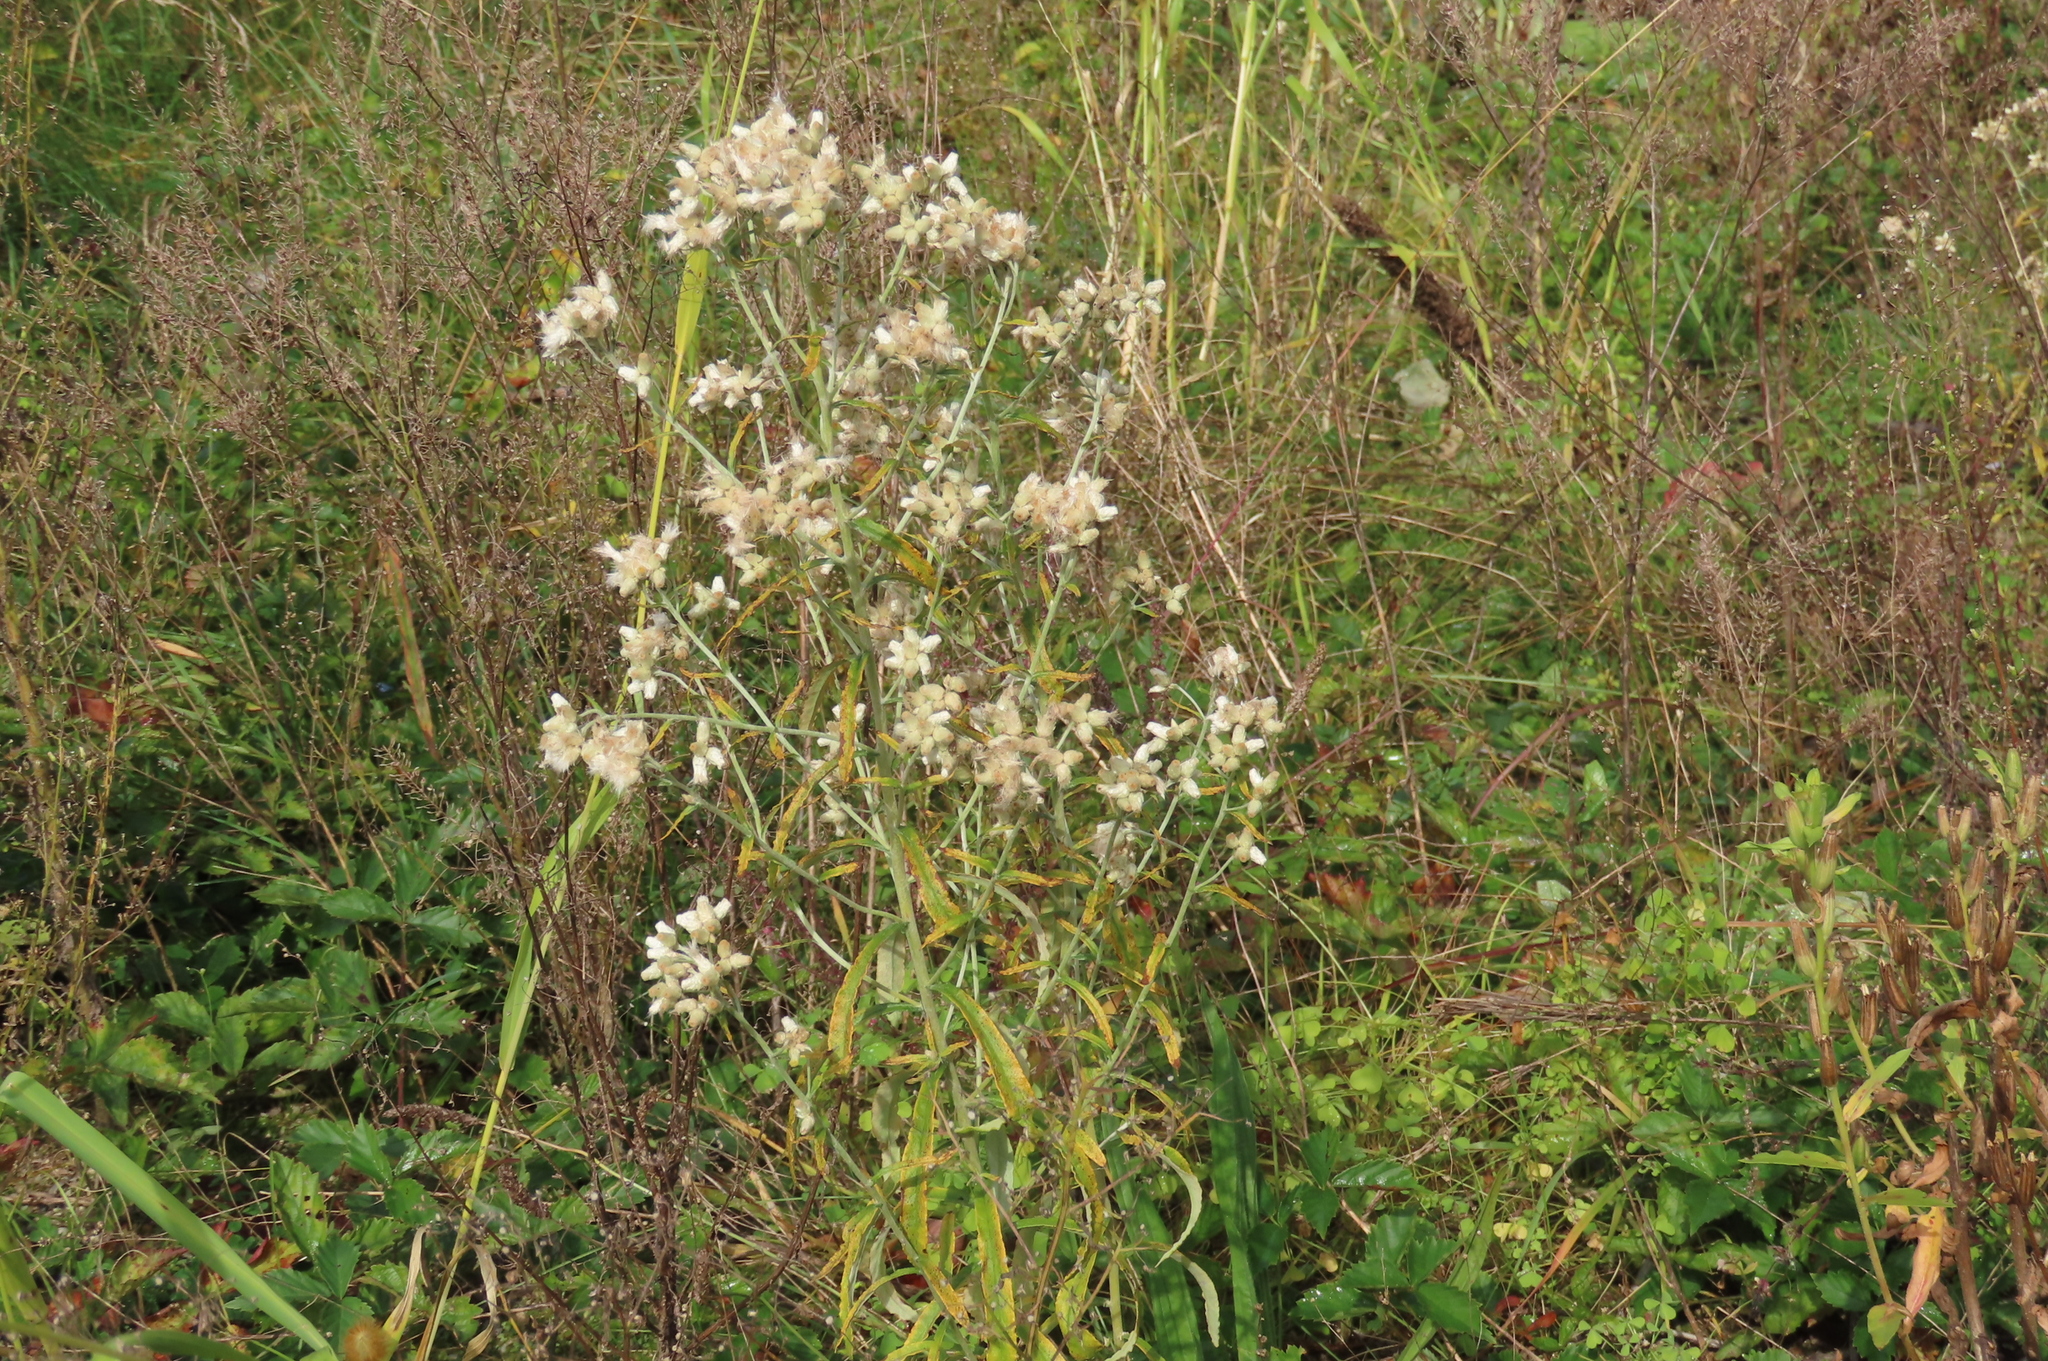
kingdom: Plantae
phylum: Tracheophyta
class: Magnoliopsida
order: Asterales
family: Asteraceae
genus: Pseudognaphalium
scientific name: Pseudognaphalium obtusifolium
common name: Eastern rabbit-tobacco
